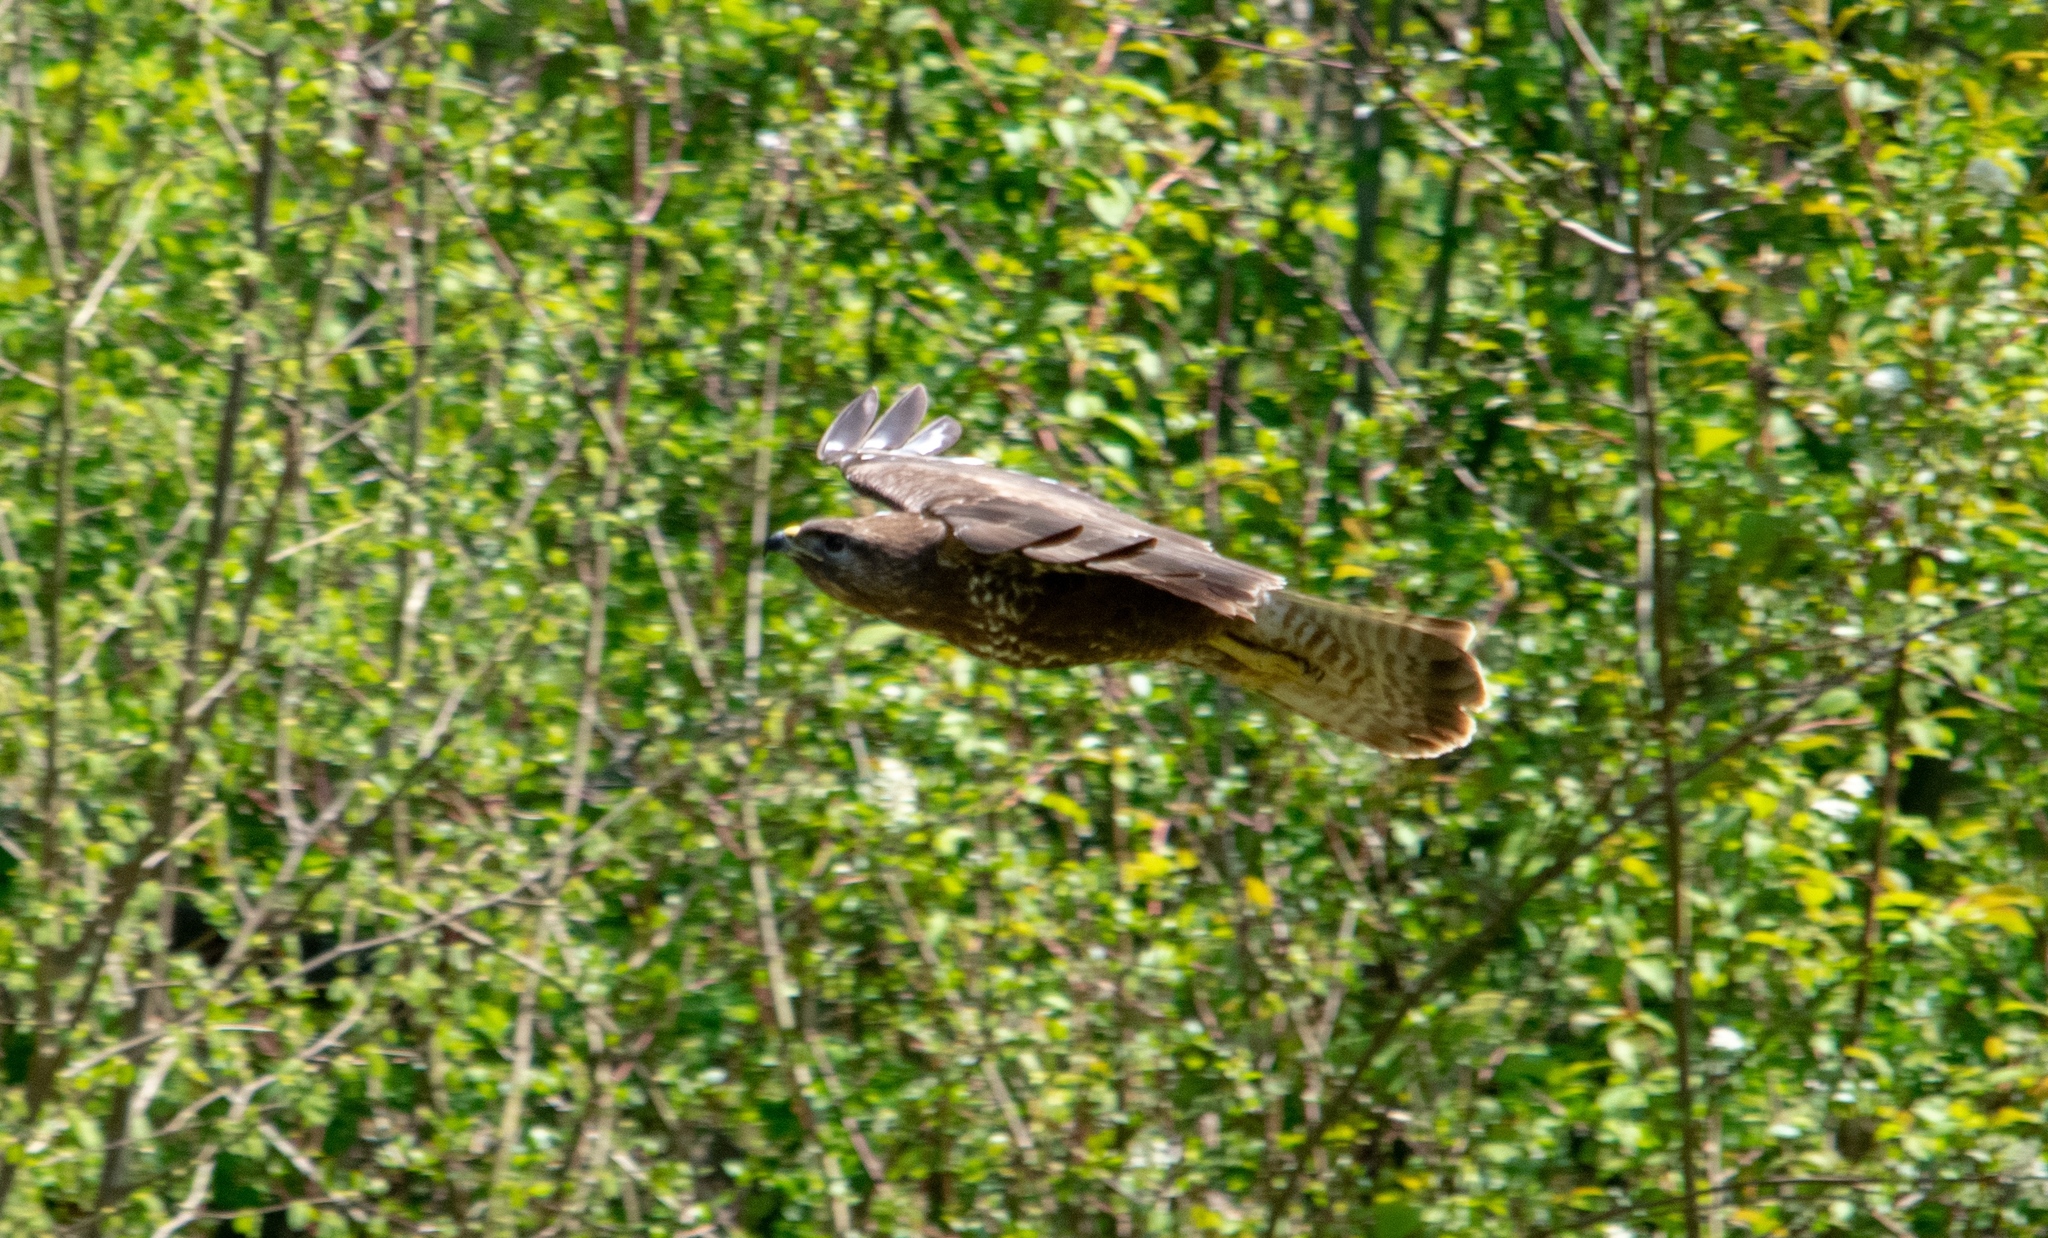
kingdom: Animalia
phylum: Chordata
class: Aves
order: Accipitriformes
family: Accipitridae
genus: Buteo
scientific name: Buteo buteo
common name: Common buzzard
